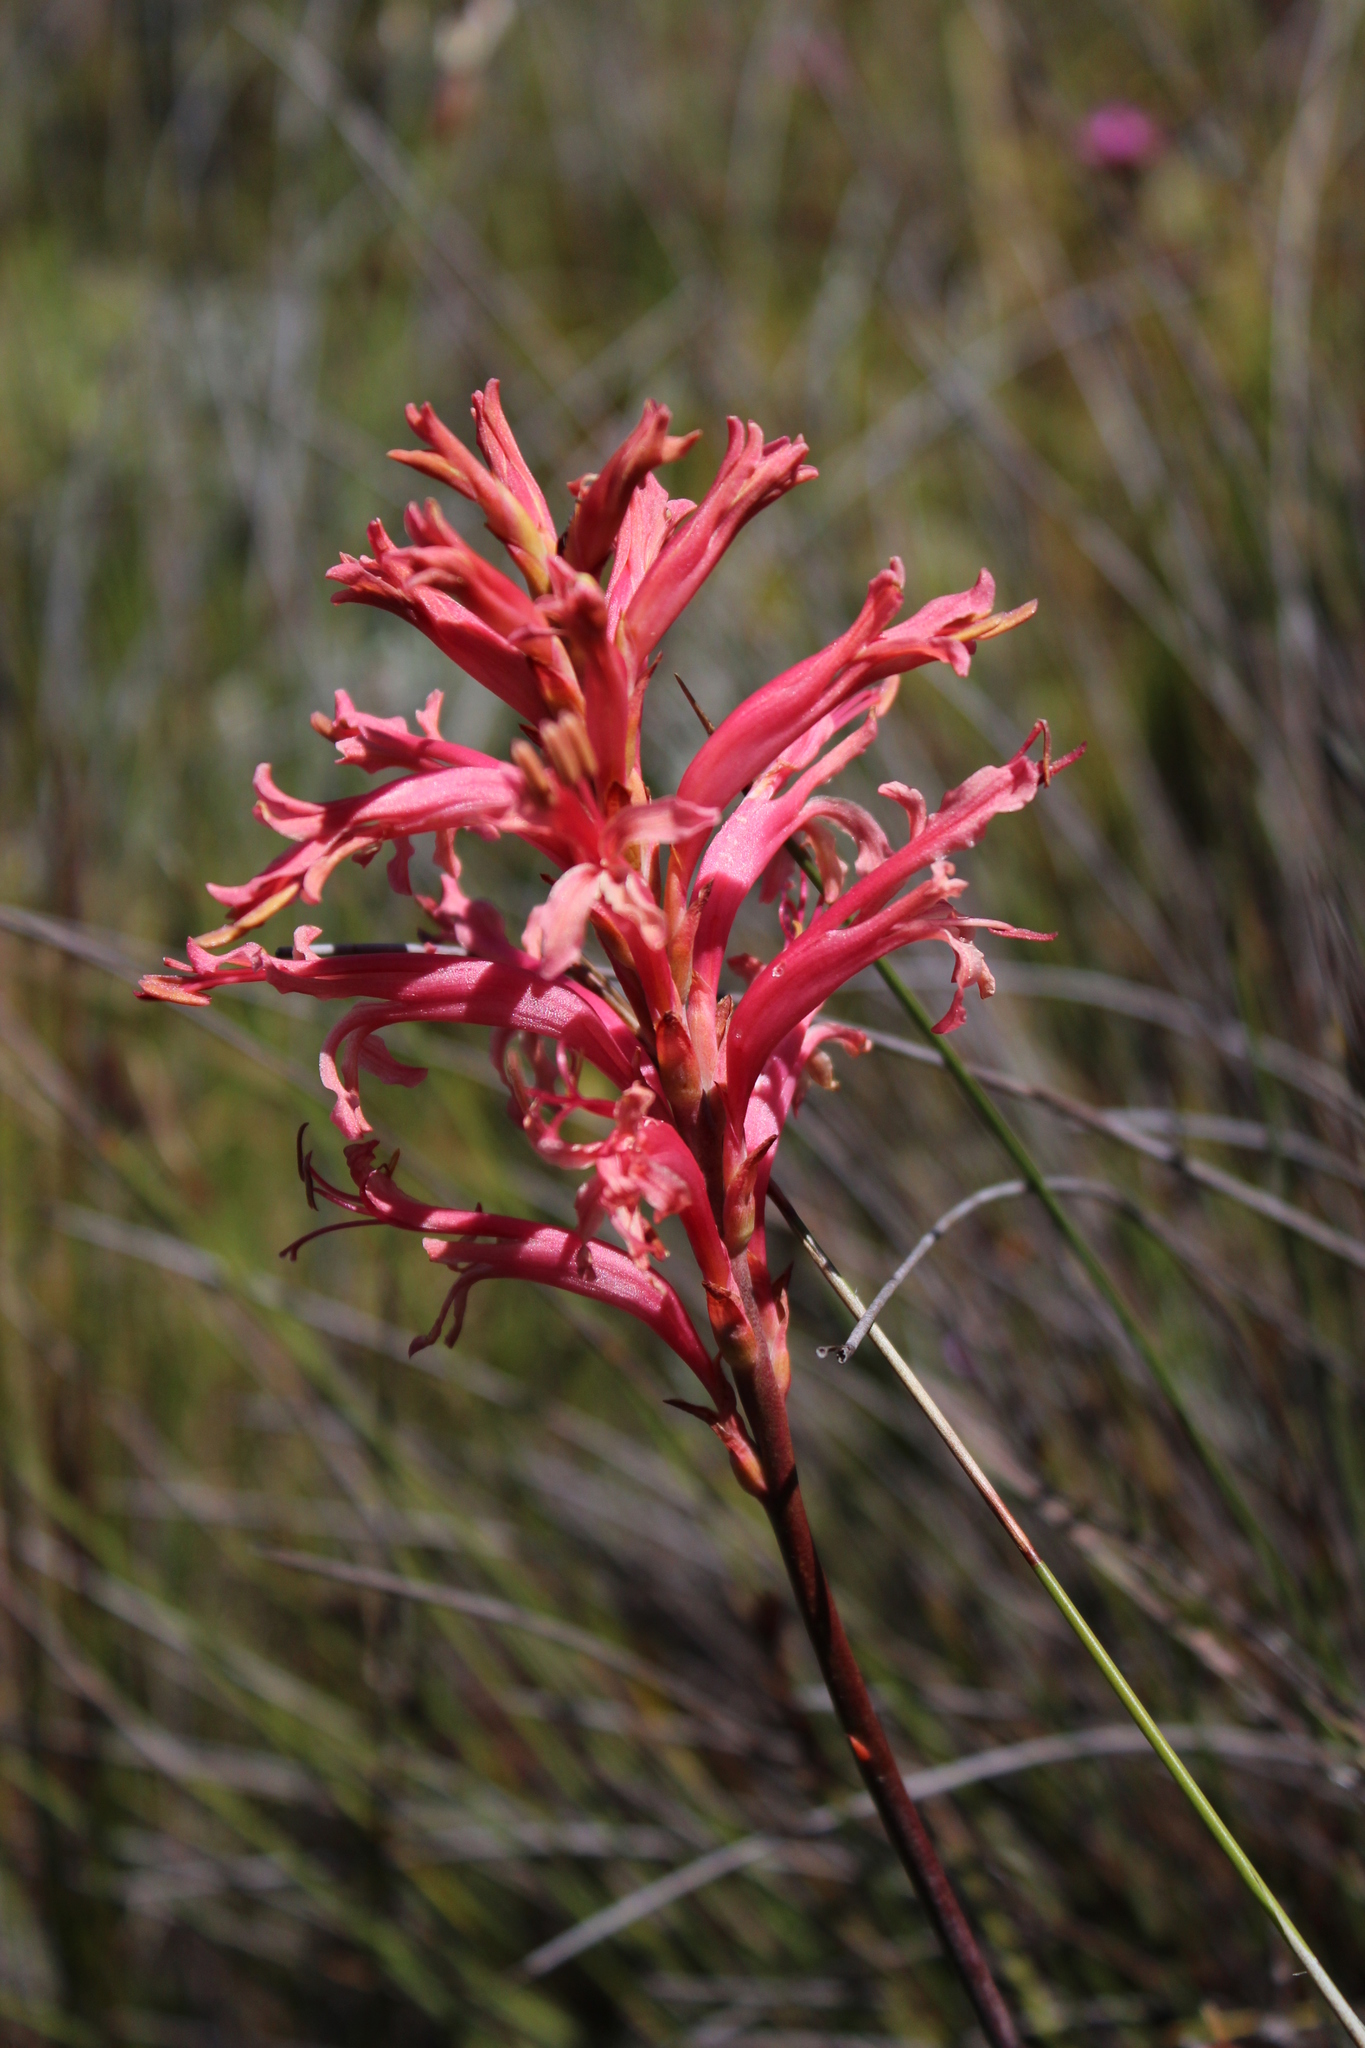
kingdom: Plantae
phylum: Tracheophyta
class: Liliopsida
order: Asparagales
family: Iridaceae
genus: Tritoniopsis
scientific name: Tritoniopsis antholyza
